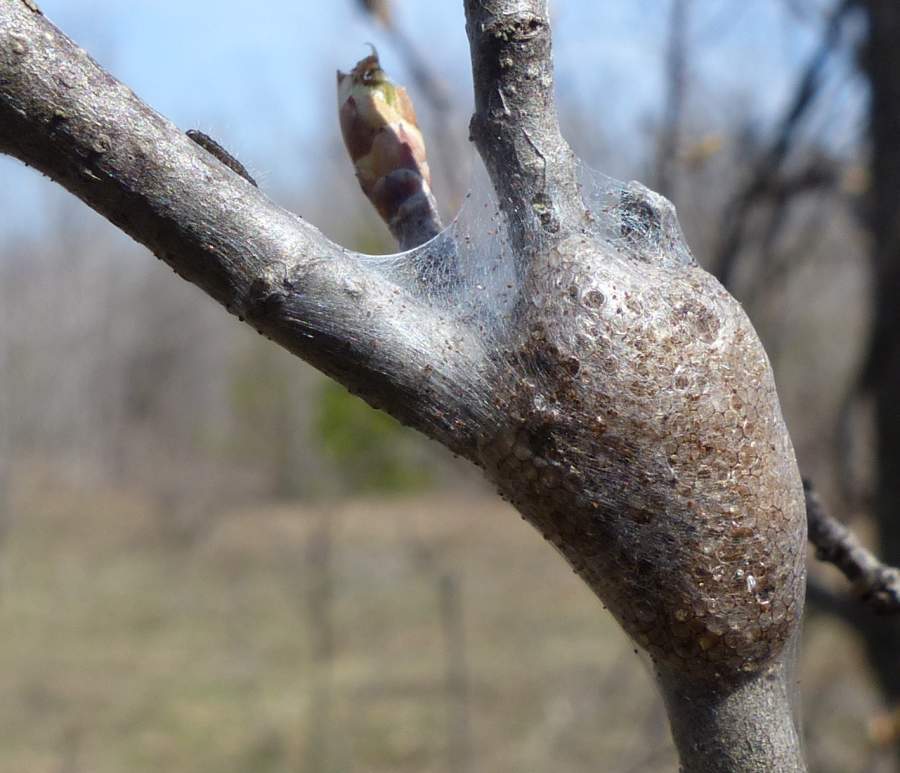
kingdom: Animalia
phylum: Arthropoda
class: Insecta
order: Lepidoptera
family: Lasiocampidae
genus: Malacosoma
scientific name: Malacosoma americana
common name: Eastern tent caterpillar moth
